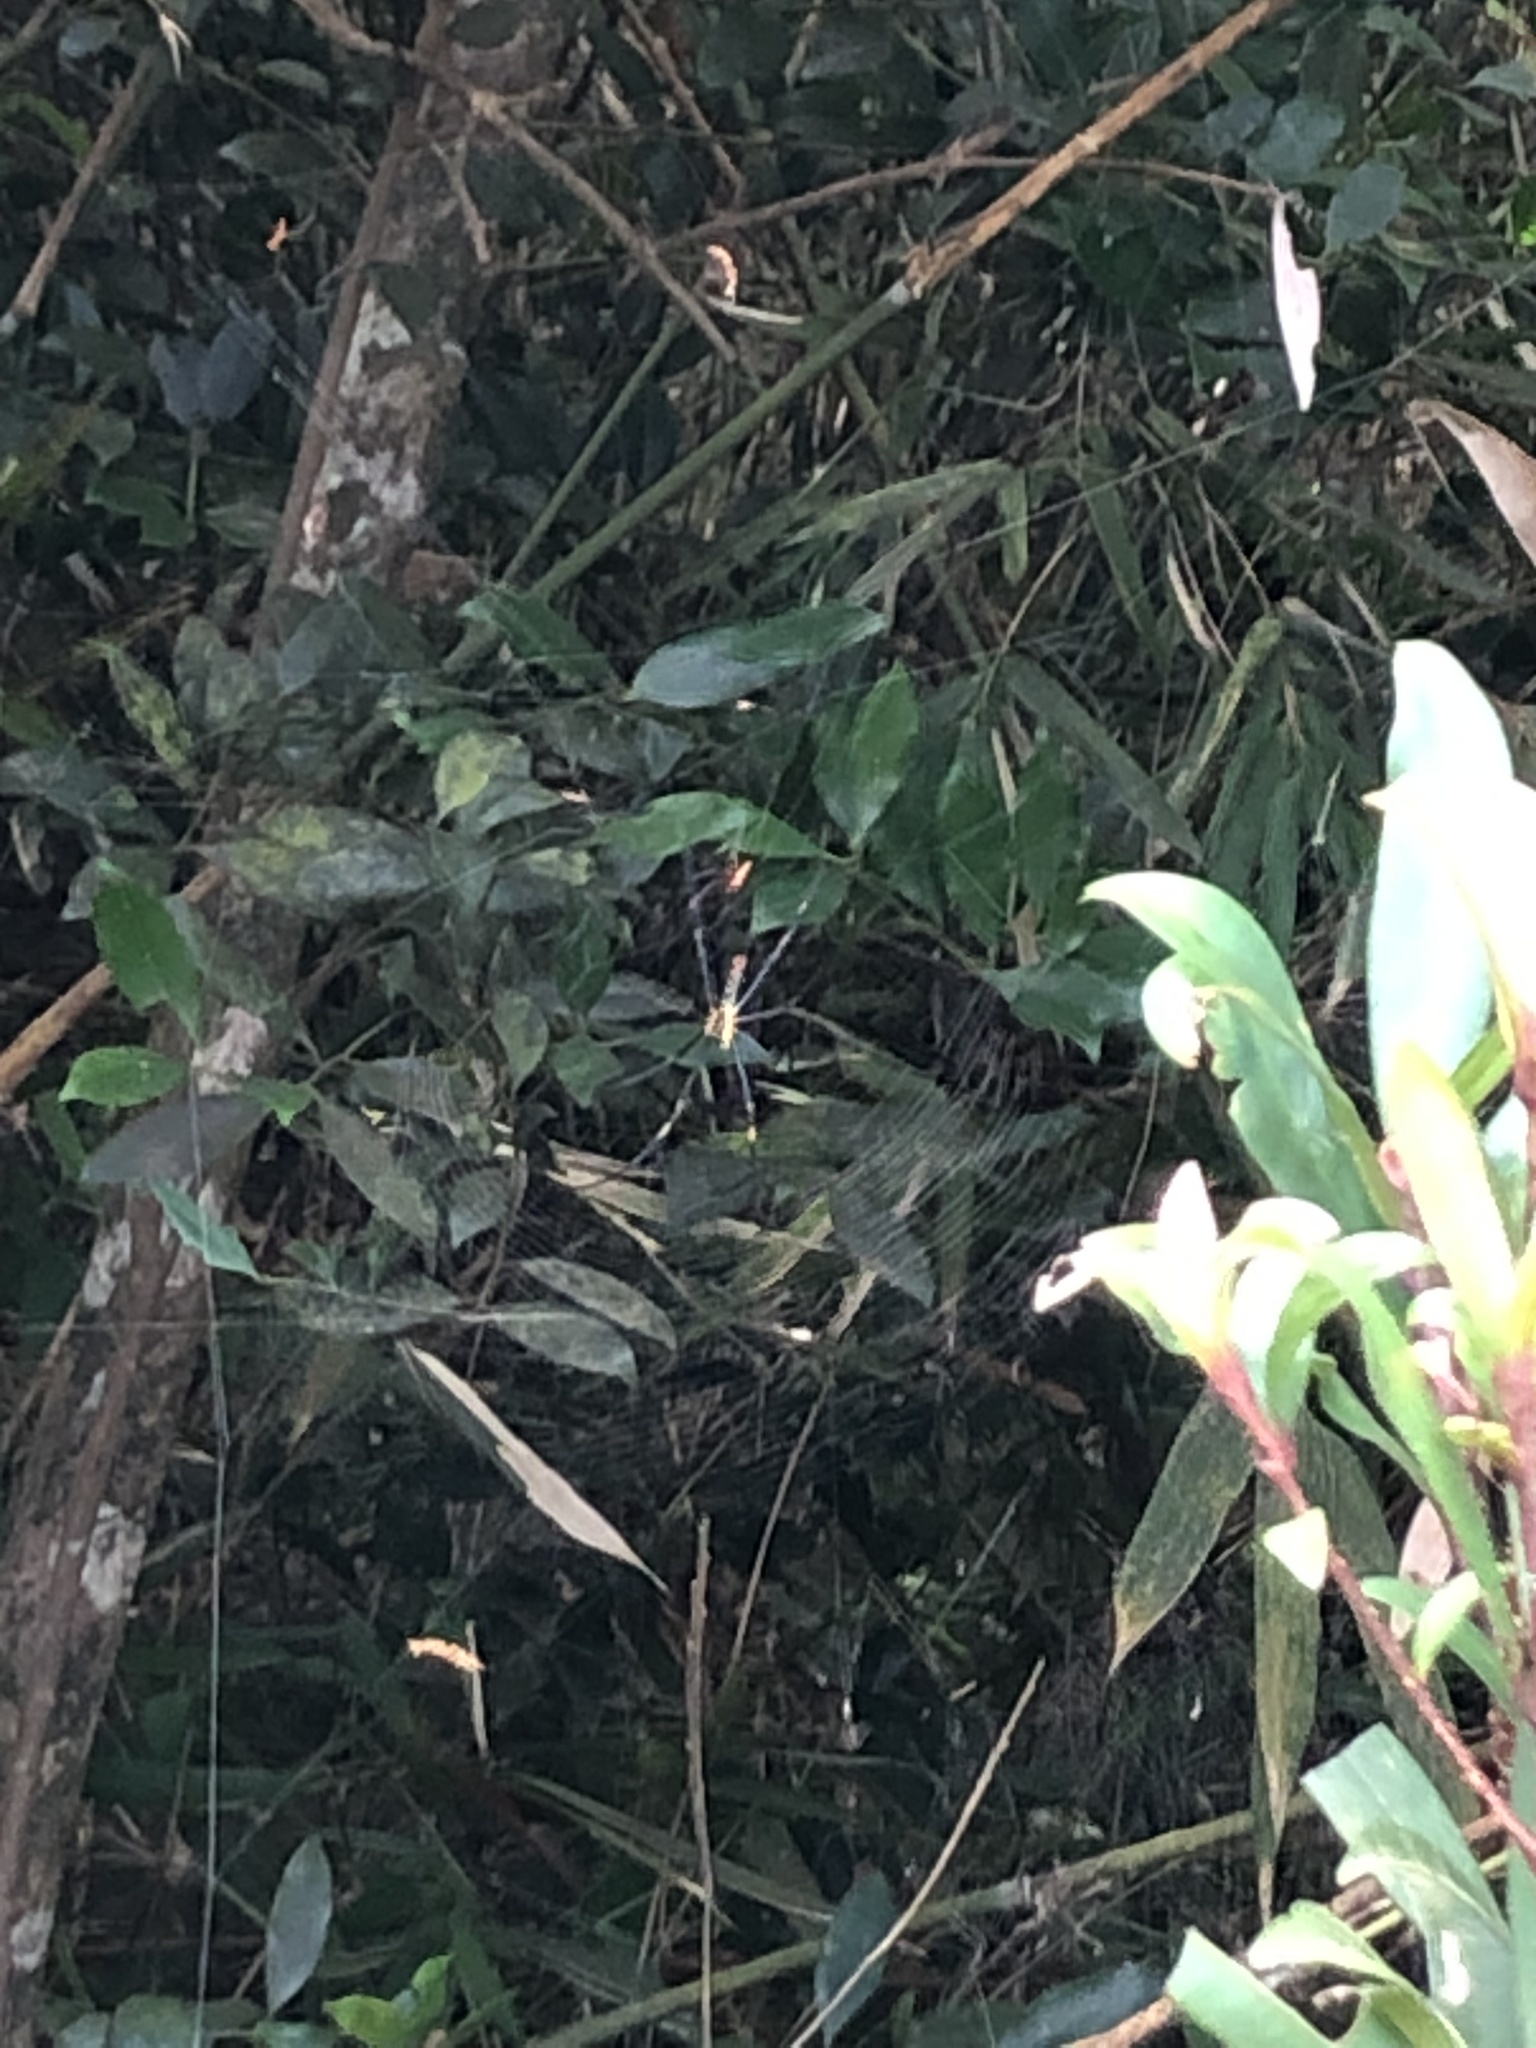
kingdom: Animalia
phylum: Arthropoda
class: Arachnida
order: Araneae
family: Araneidae
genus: Nephila
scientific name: Nephila pilipes
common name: Giant golden orb weaver
